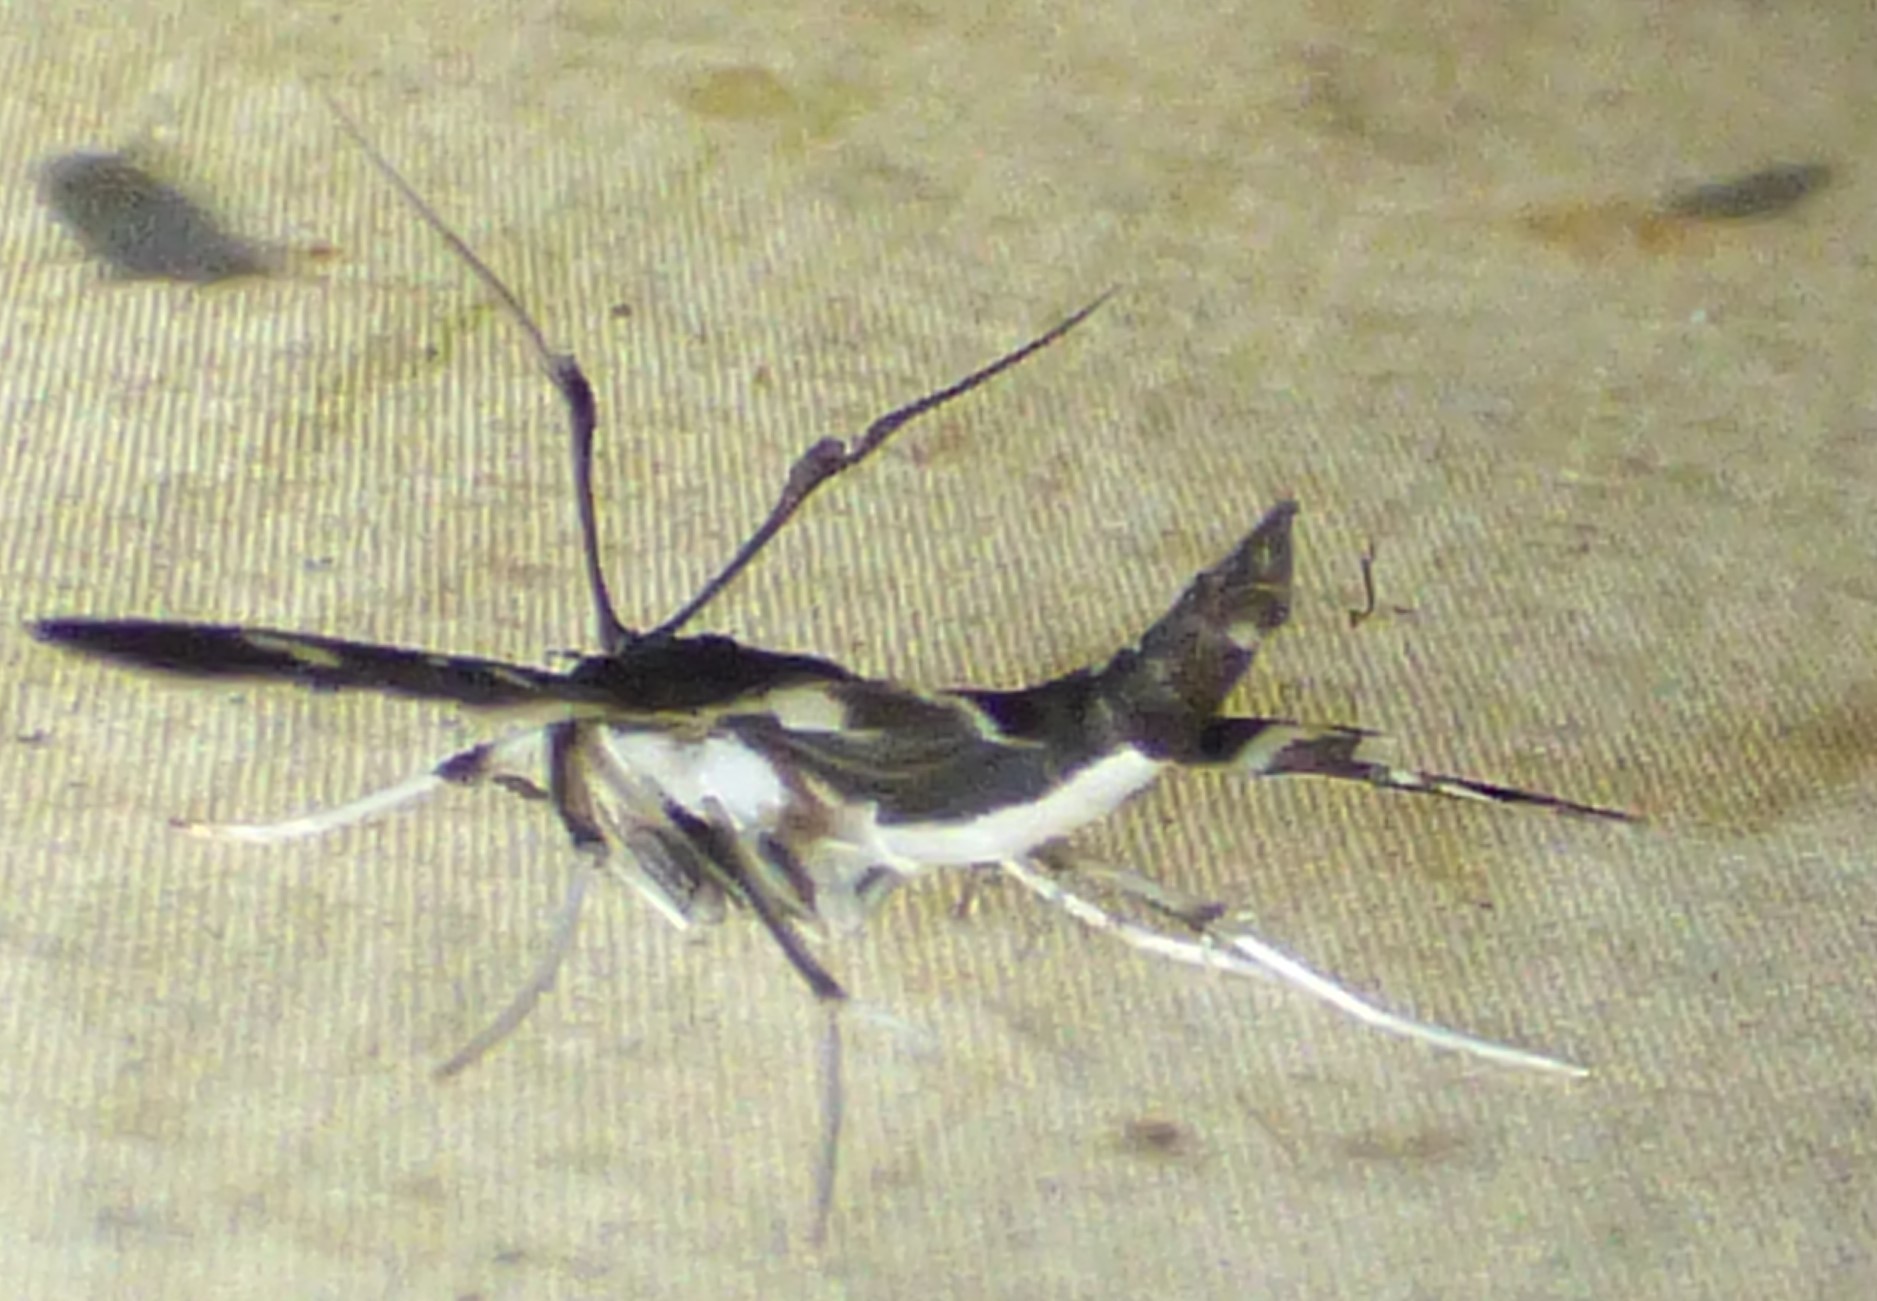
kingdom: Animalia
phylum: Arthropoda
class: Insecta
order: Lepidoptera
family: Crambidae
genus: Desmia
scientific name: Desmia funeralis
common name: Grape leaf folder moth
